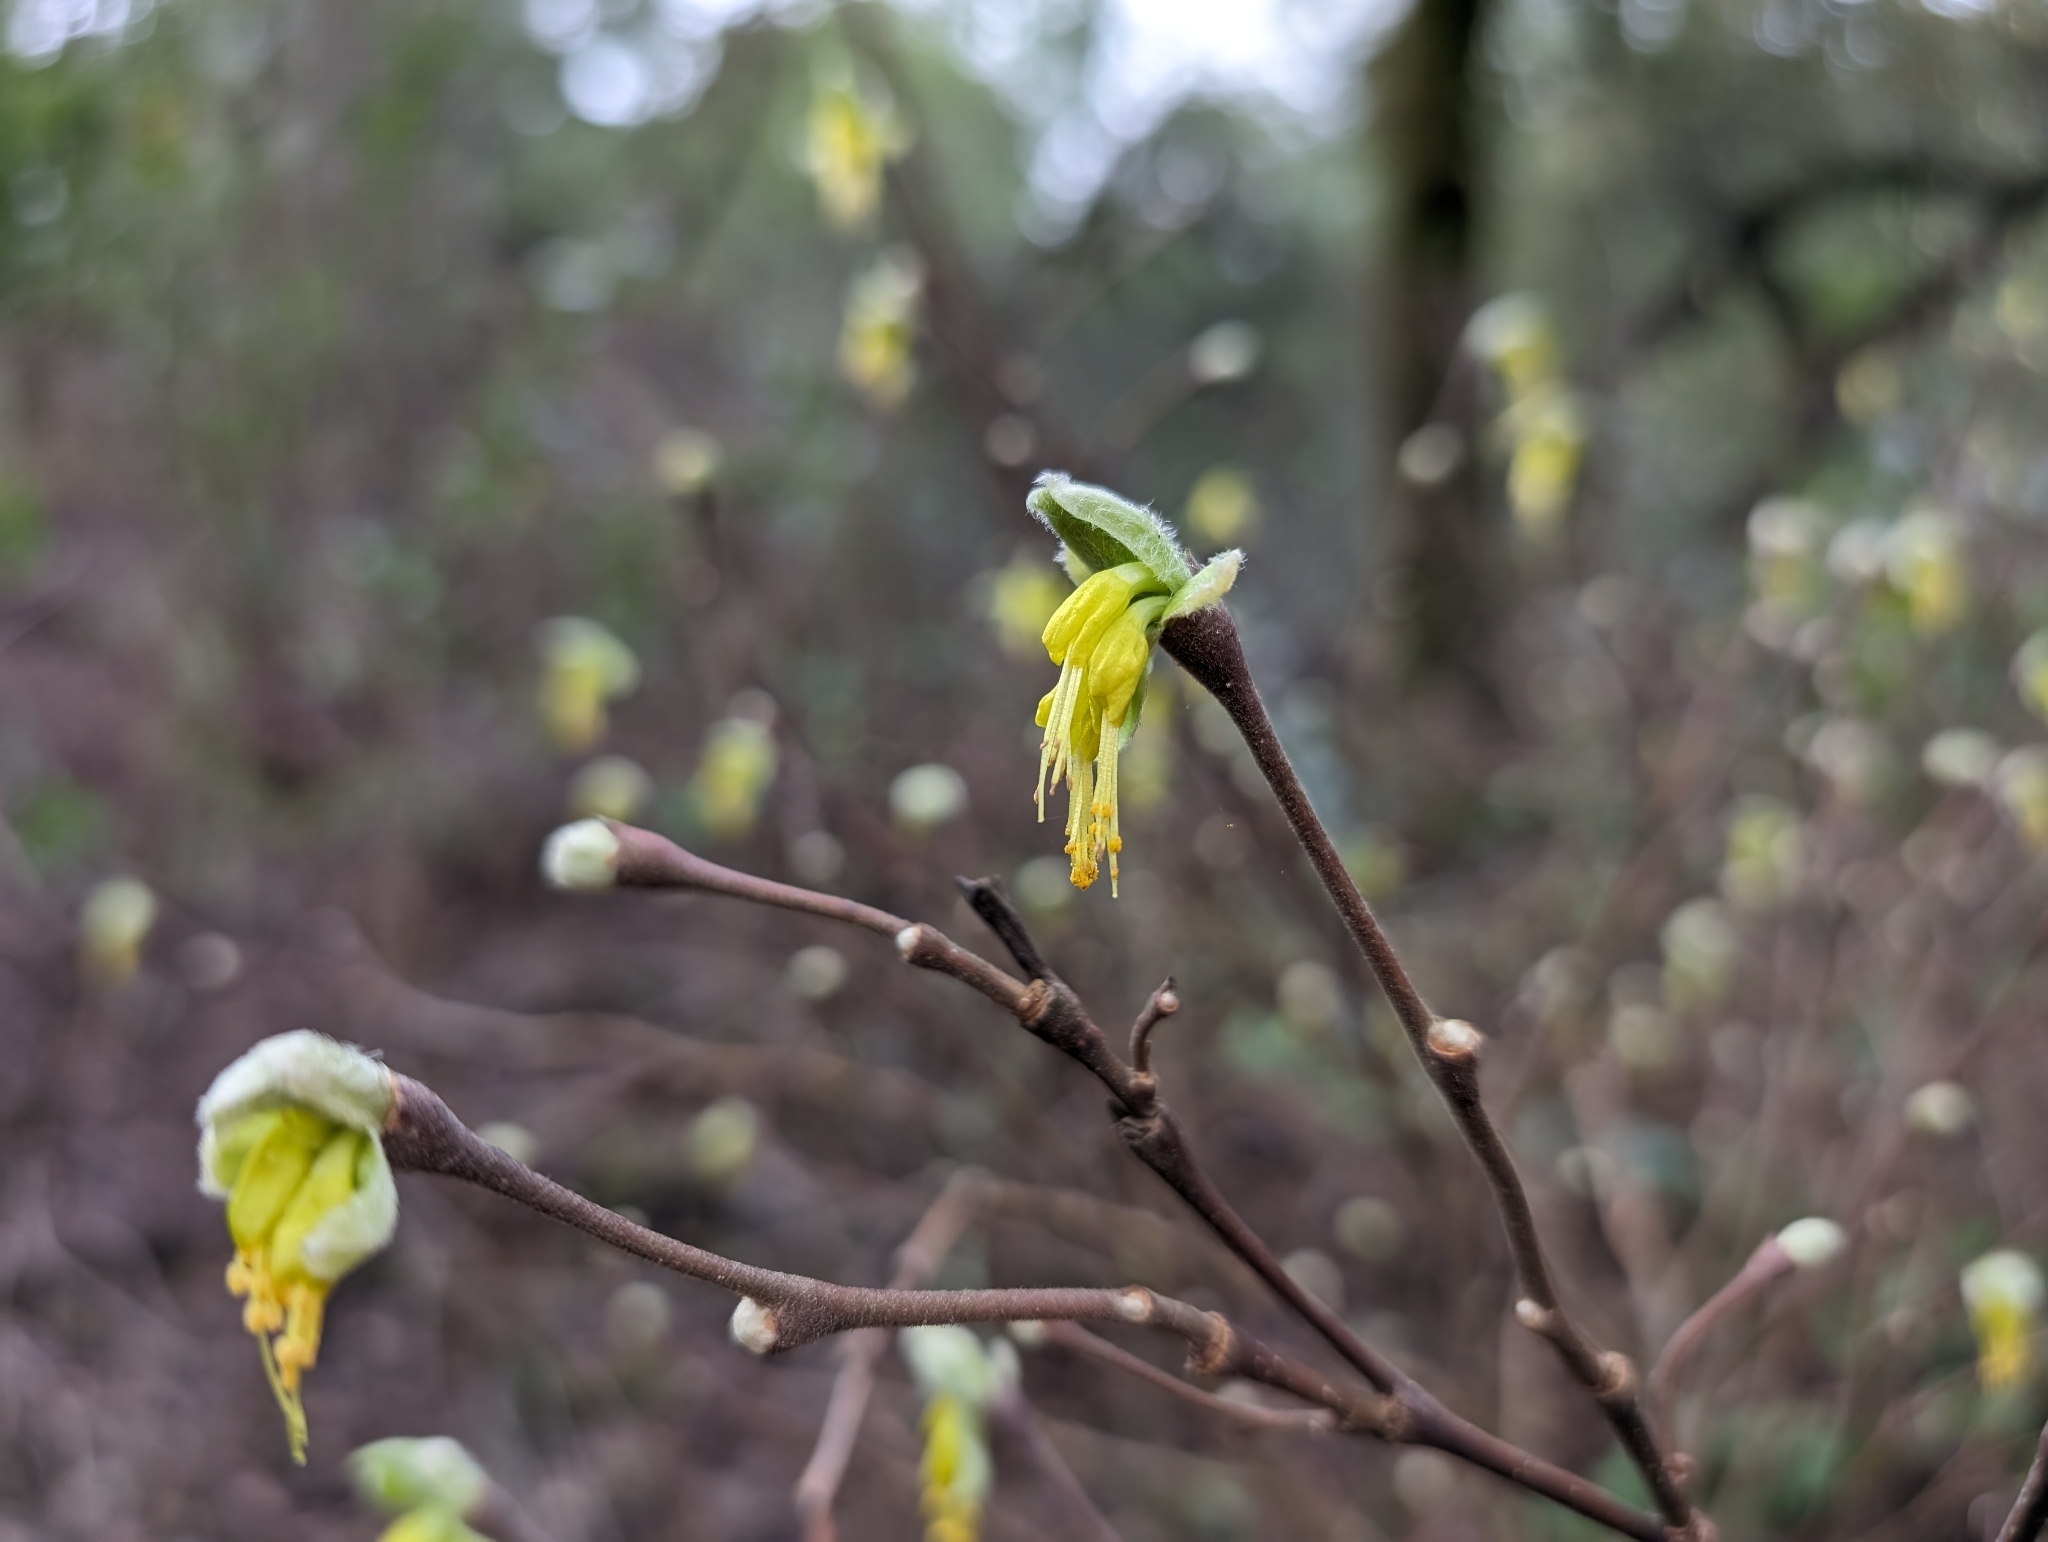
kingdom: Plantae
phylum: Tracheophyta
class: Magnoliopsida
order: Malvales
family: Thymelaeaceae
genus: Dirca
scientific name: Dirca occidentalis
